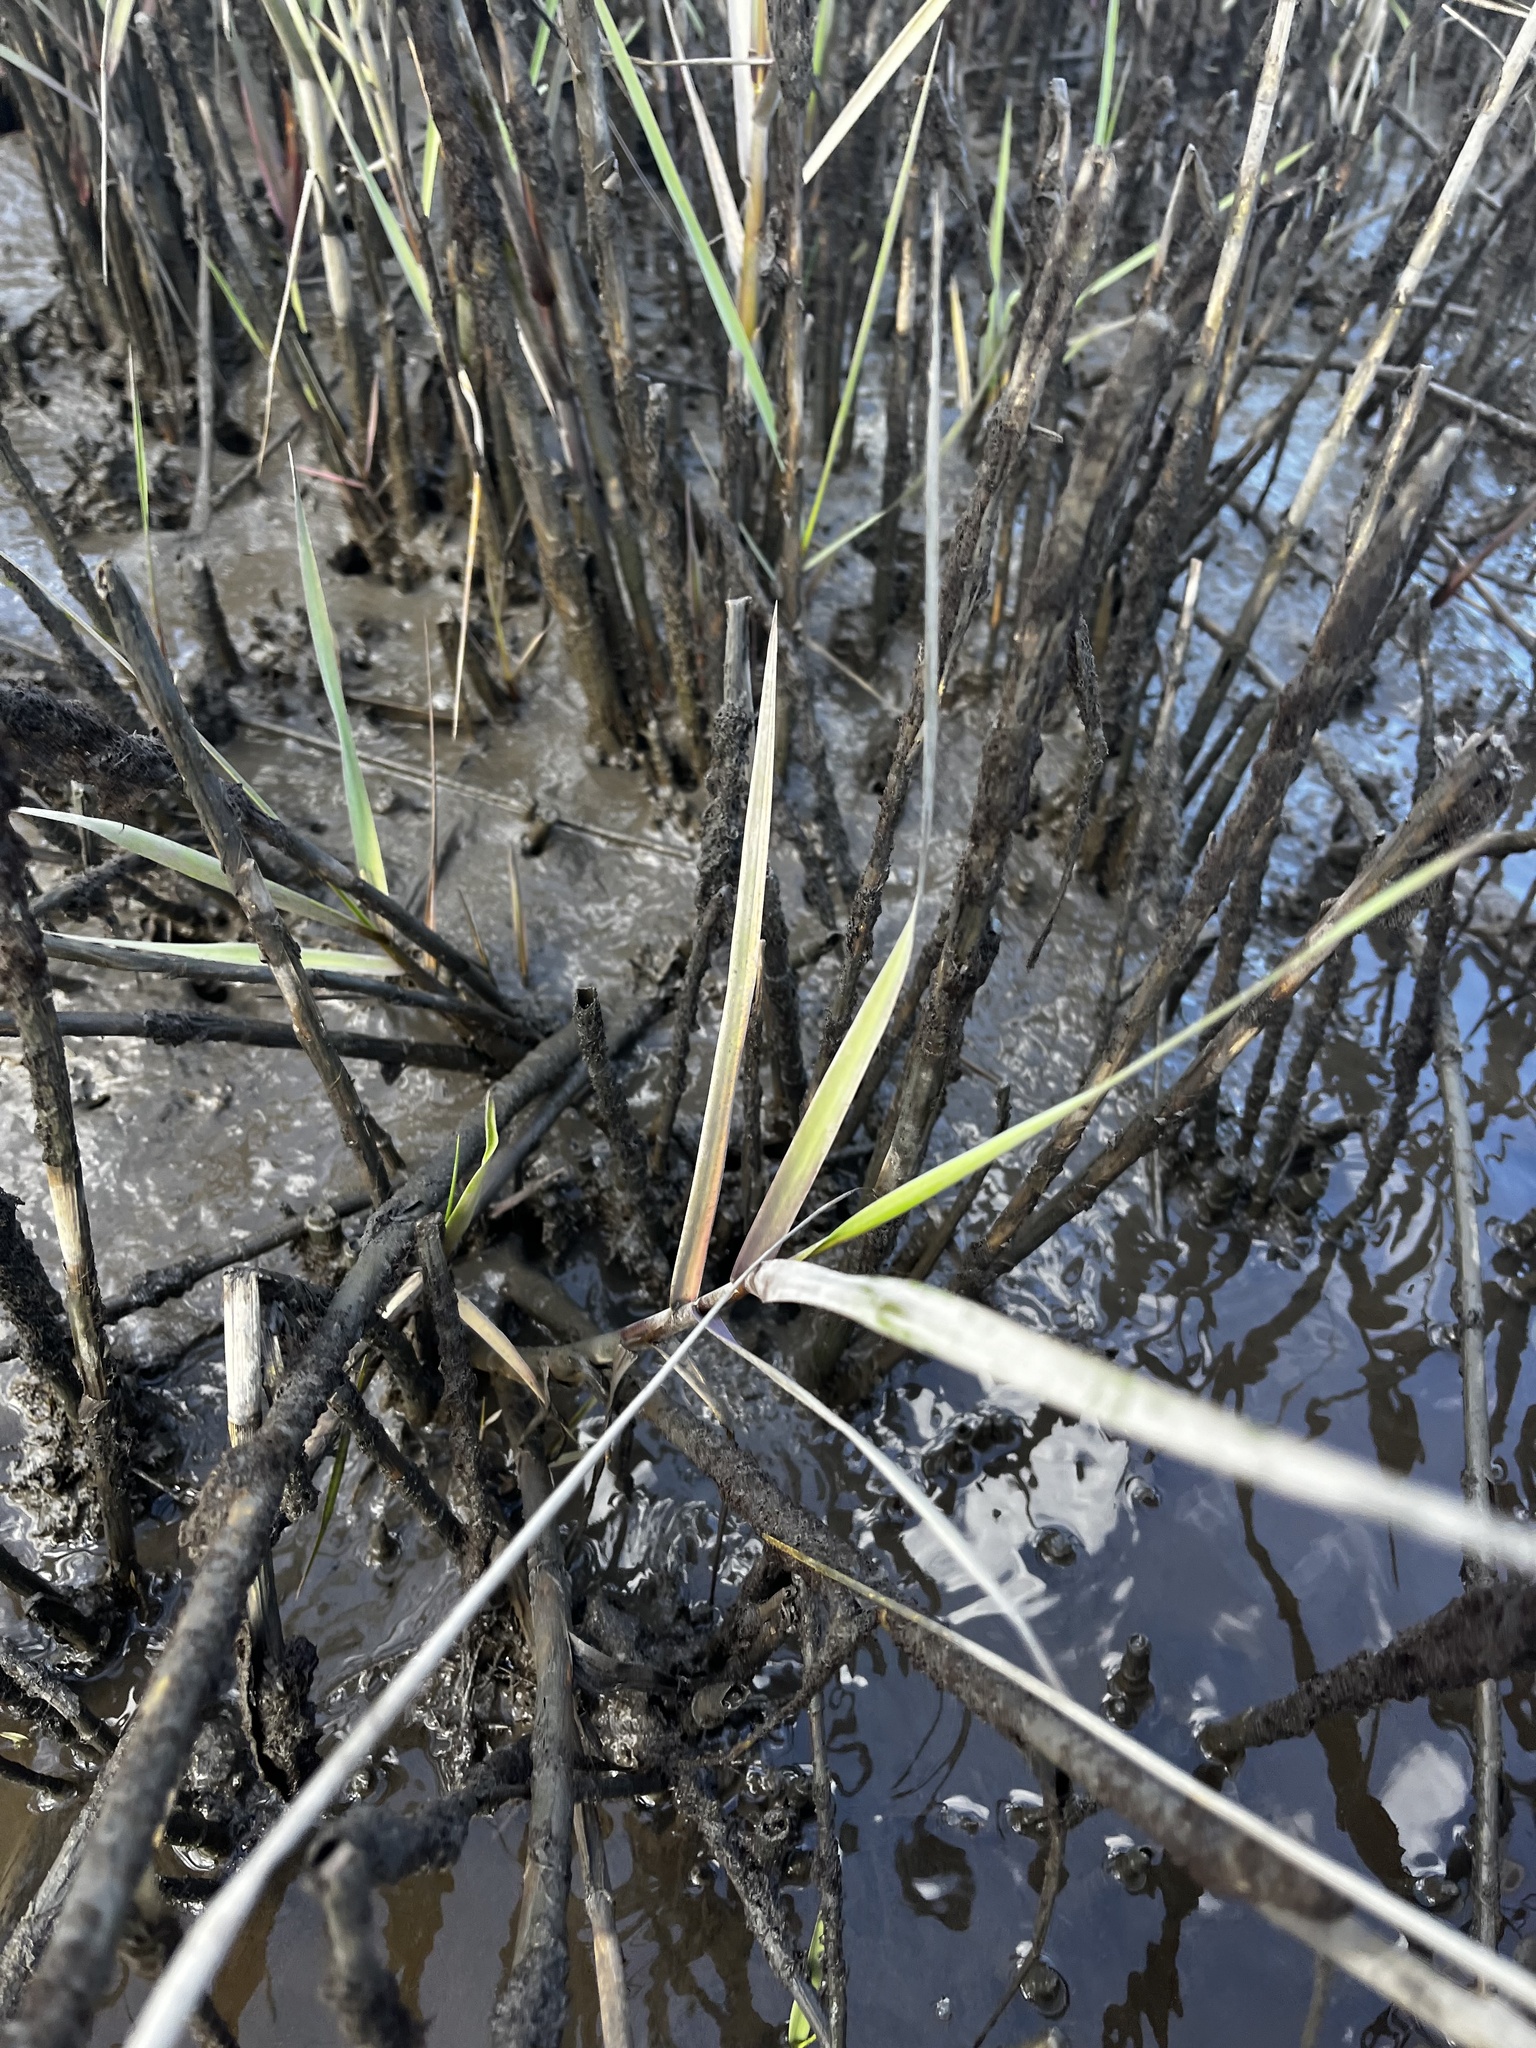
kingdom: Plantae
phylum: Tracheophyta
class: Liliopsida
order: Poales
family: Poaceae
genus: Sporobolus
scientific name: Sporobolus alterniflorus
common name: Atlantic cordgrass
